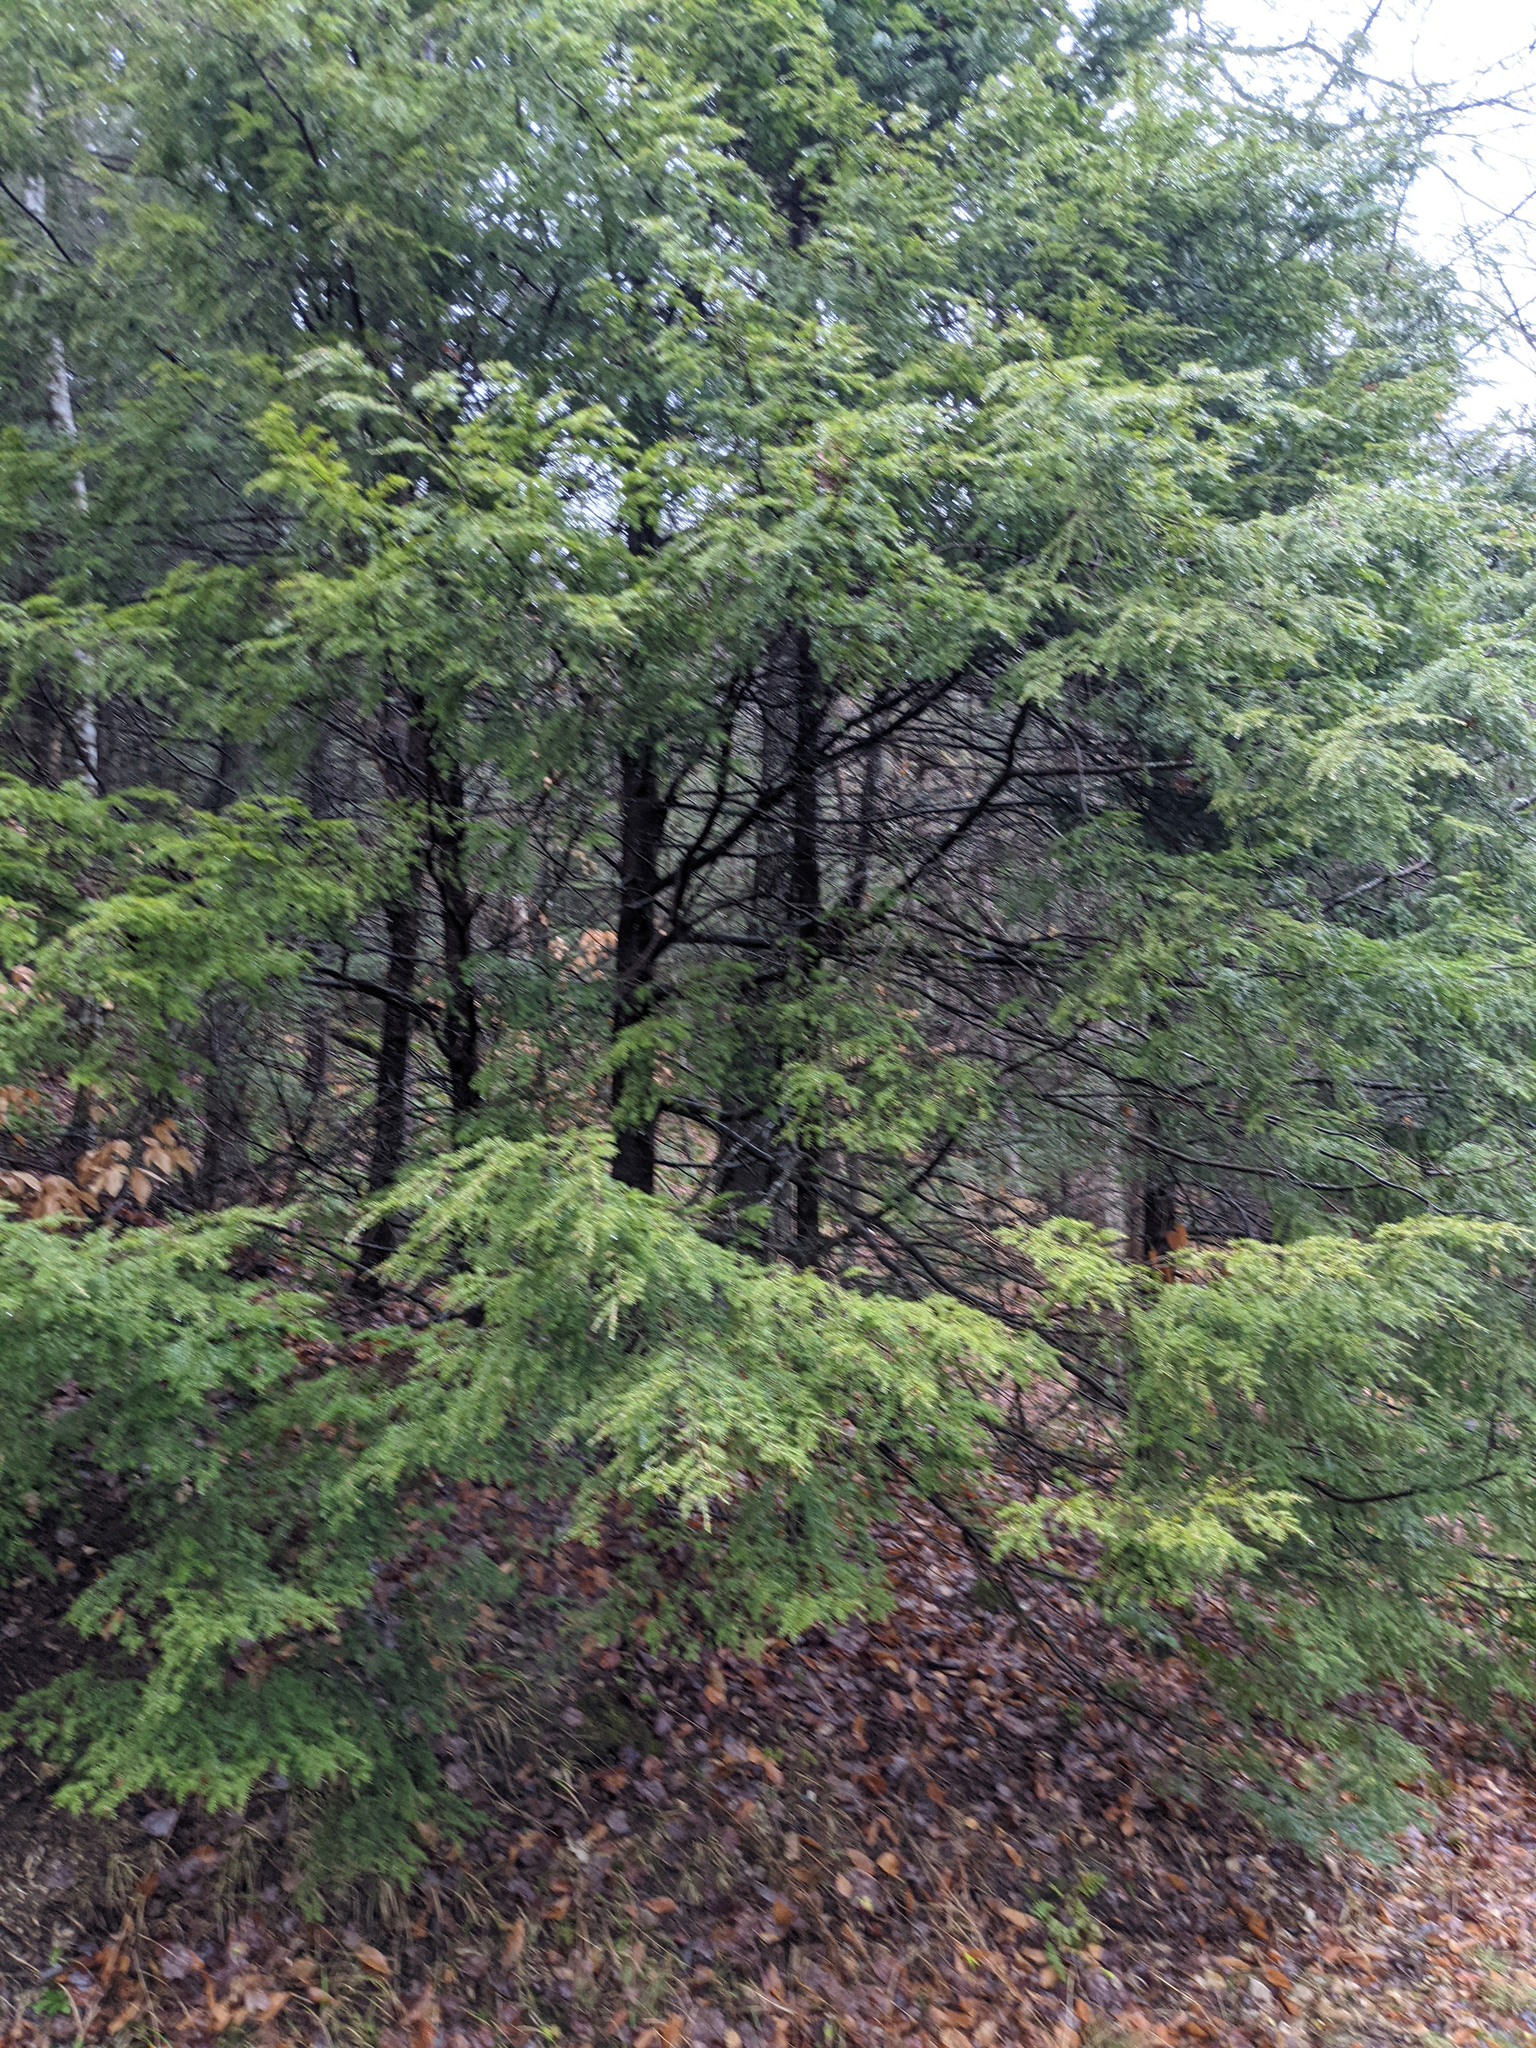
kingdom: Plantae
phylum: Tracheophyta
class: Pinopsida
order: Pinales
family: Pinaceae
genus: Tsuga
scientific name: Tsuga canadensis
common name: Eastern hemlock
